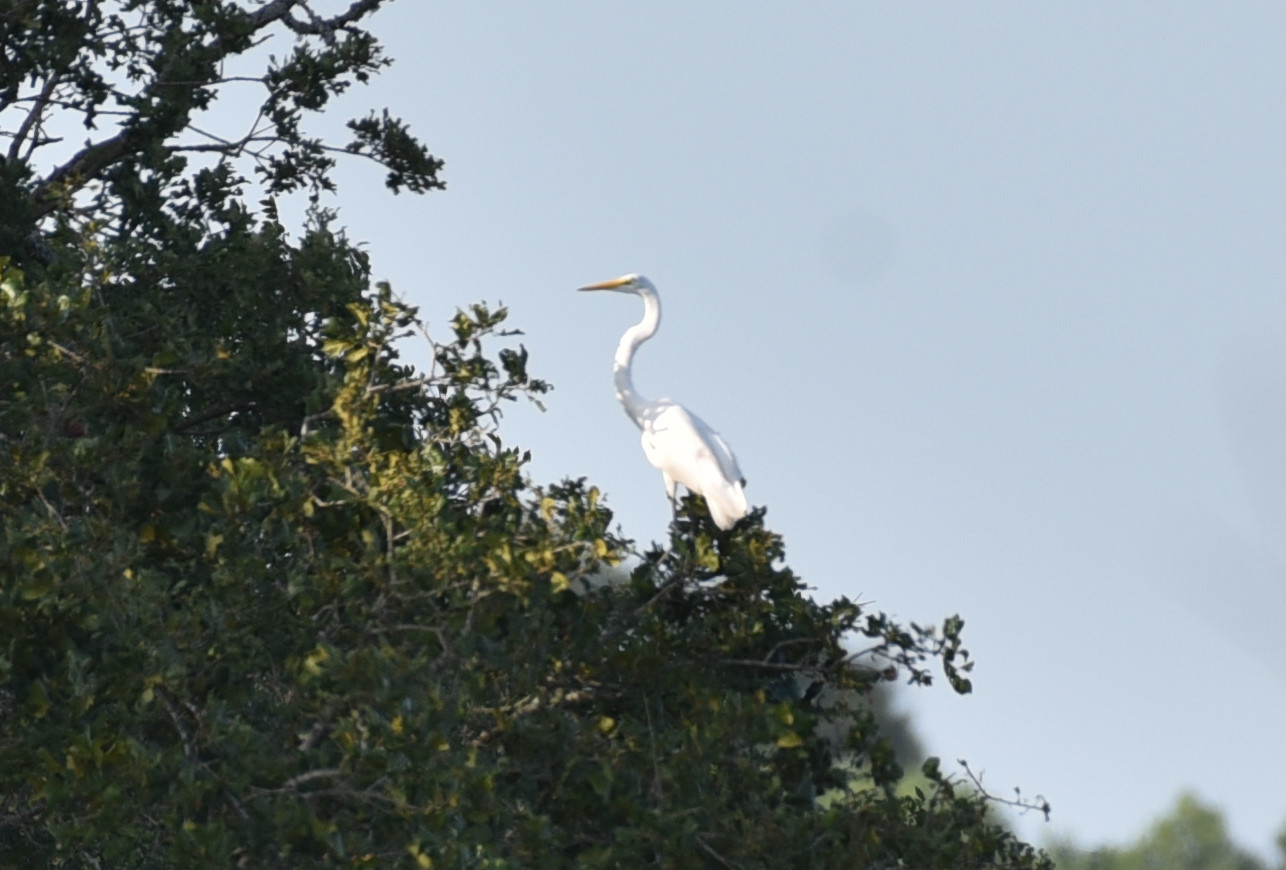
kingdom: Animalia
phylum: Chordata
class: Aves
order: Pelecaniformes
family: Ardeidae
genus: Ardea
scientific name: Ardea alba
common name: Great egret
